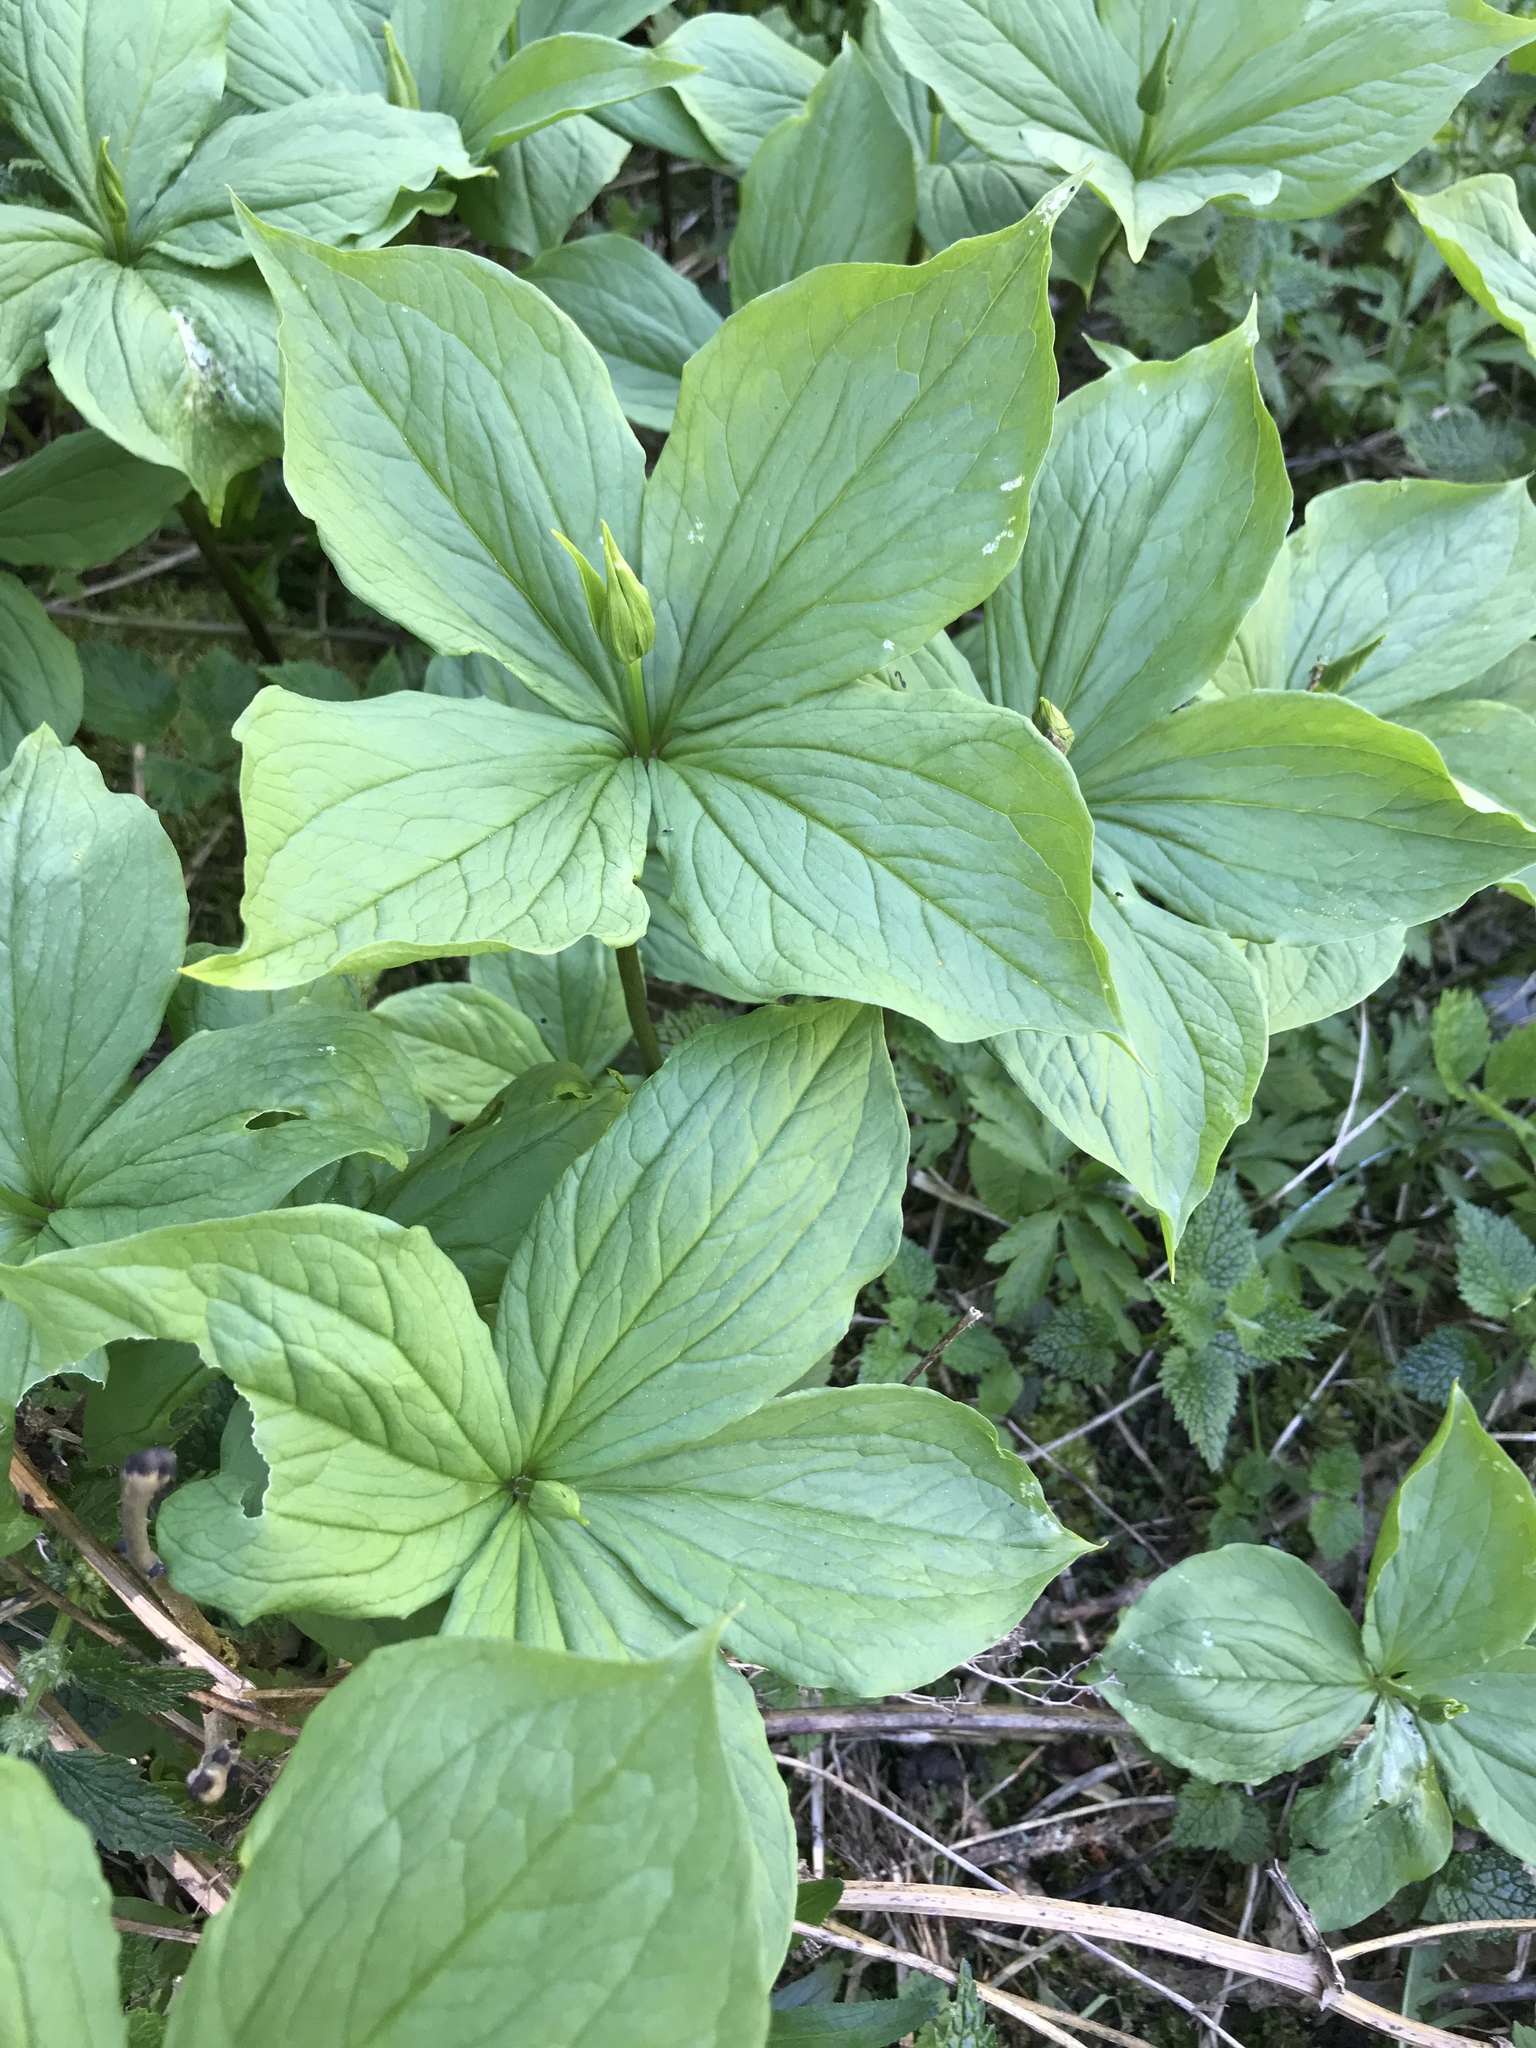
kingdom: Plantae
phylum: Tracheophyta
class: Liliopsida
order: Liliales
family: Melanthiaceae
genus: Paris
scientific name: Paris quadrifolia
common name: Herb-paris
